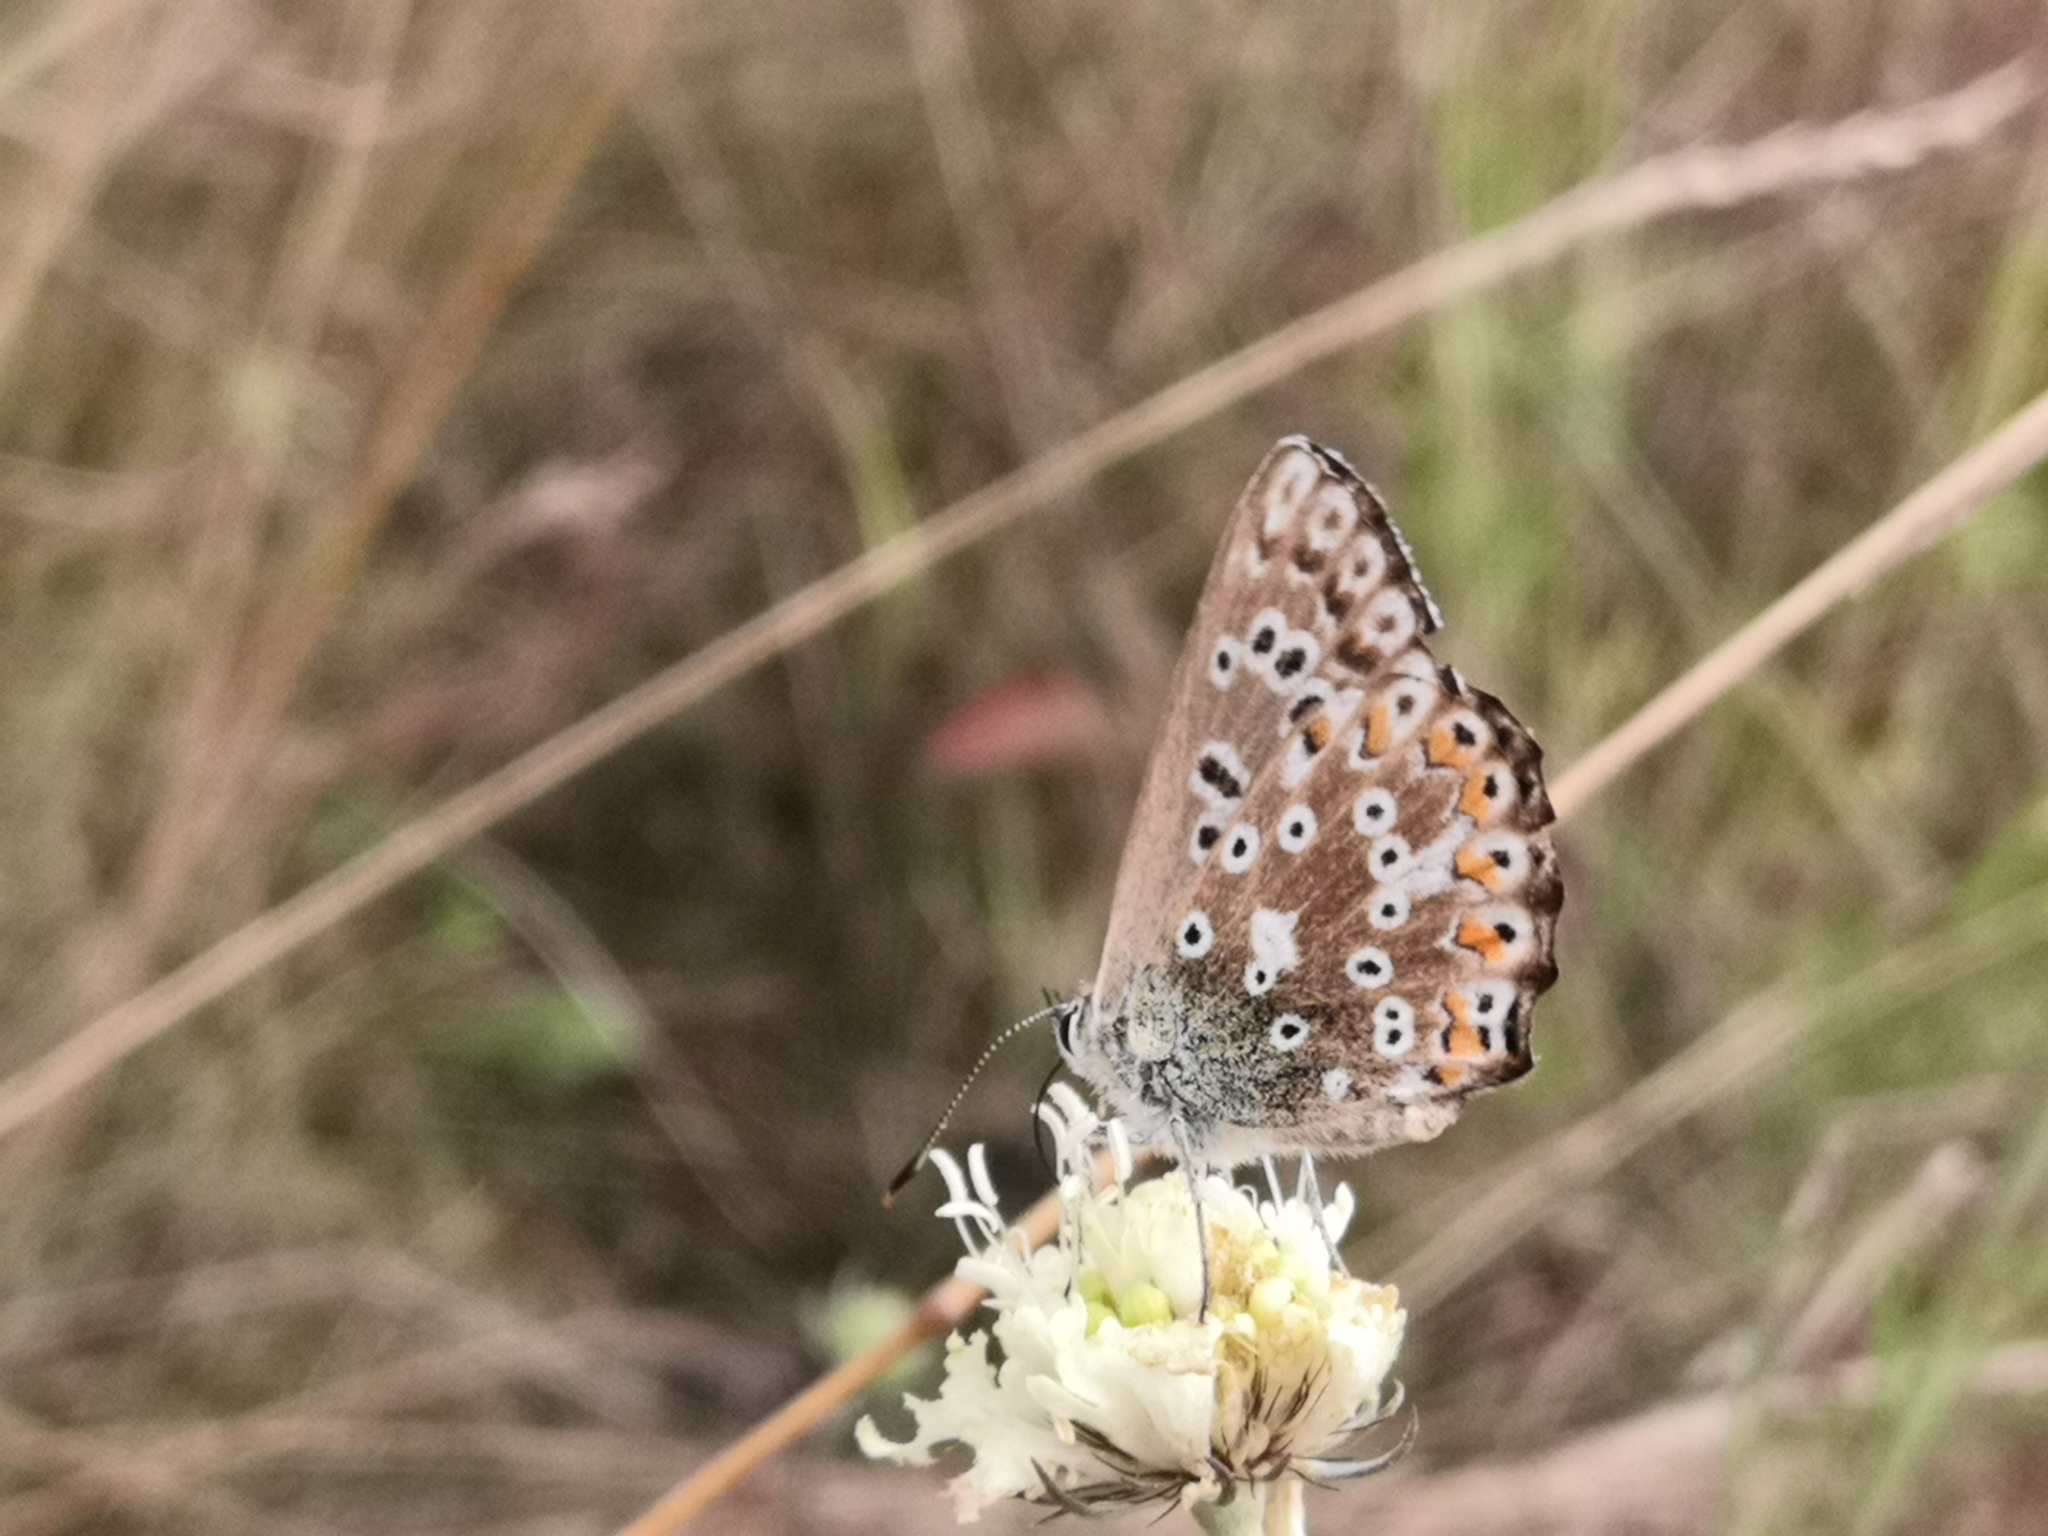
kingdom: Animalia
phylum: Arthropoda
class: Insecta
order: Lepidoptera
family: Lycaenidae
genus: Lysandra
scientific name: Lysandra coridon
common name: Chalkhill blue
